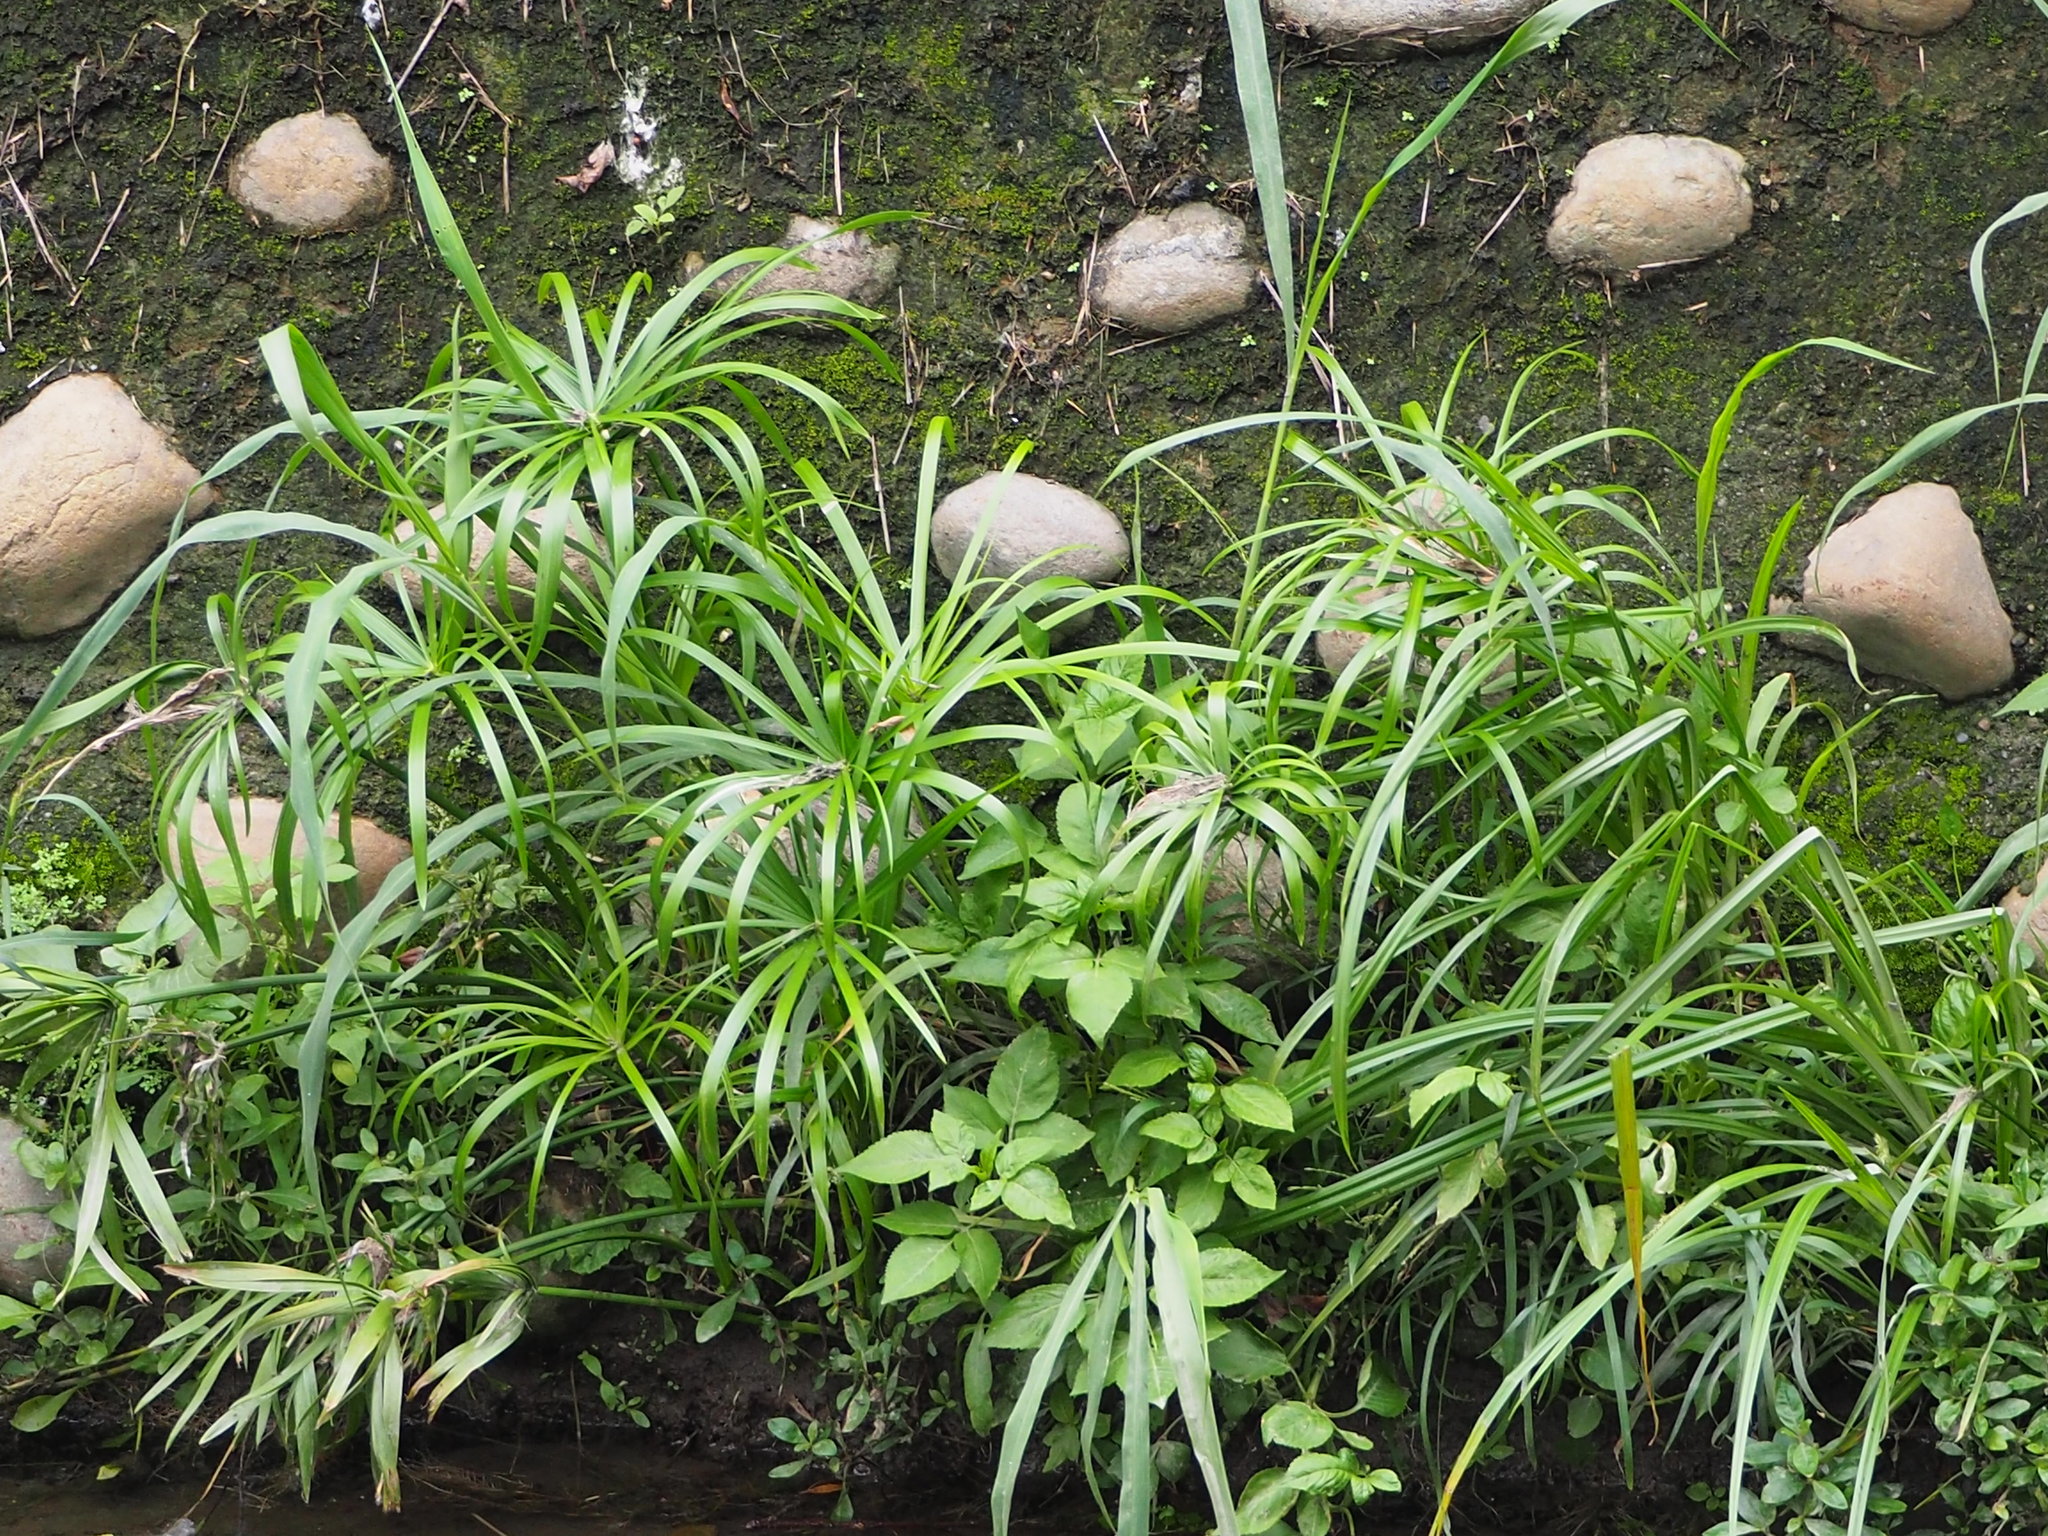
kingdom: Plantae
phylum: Tracheophyta
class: Liliopsida
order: Poales
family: Cyperaceae
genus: Cyperus
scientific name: Cyperus alternifolius
